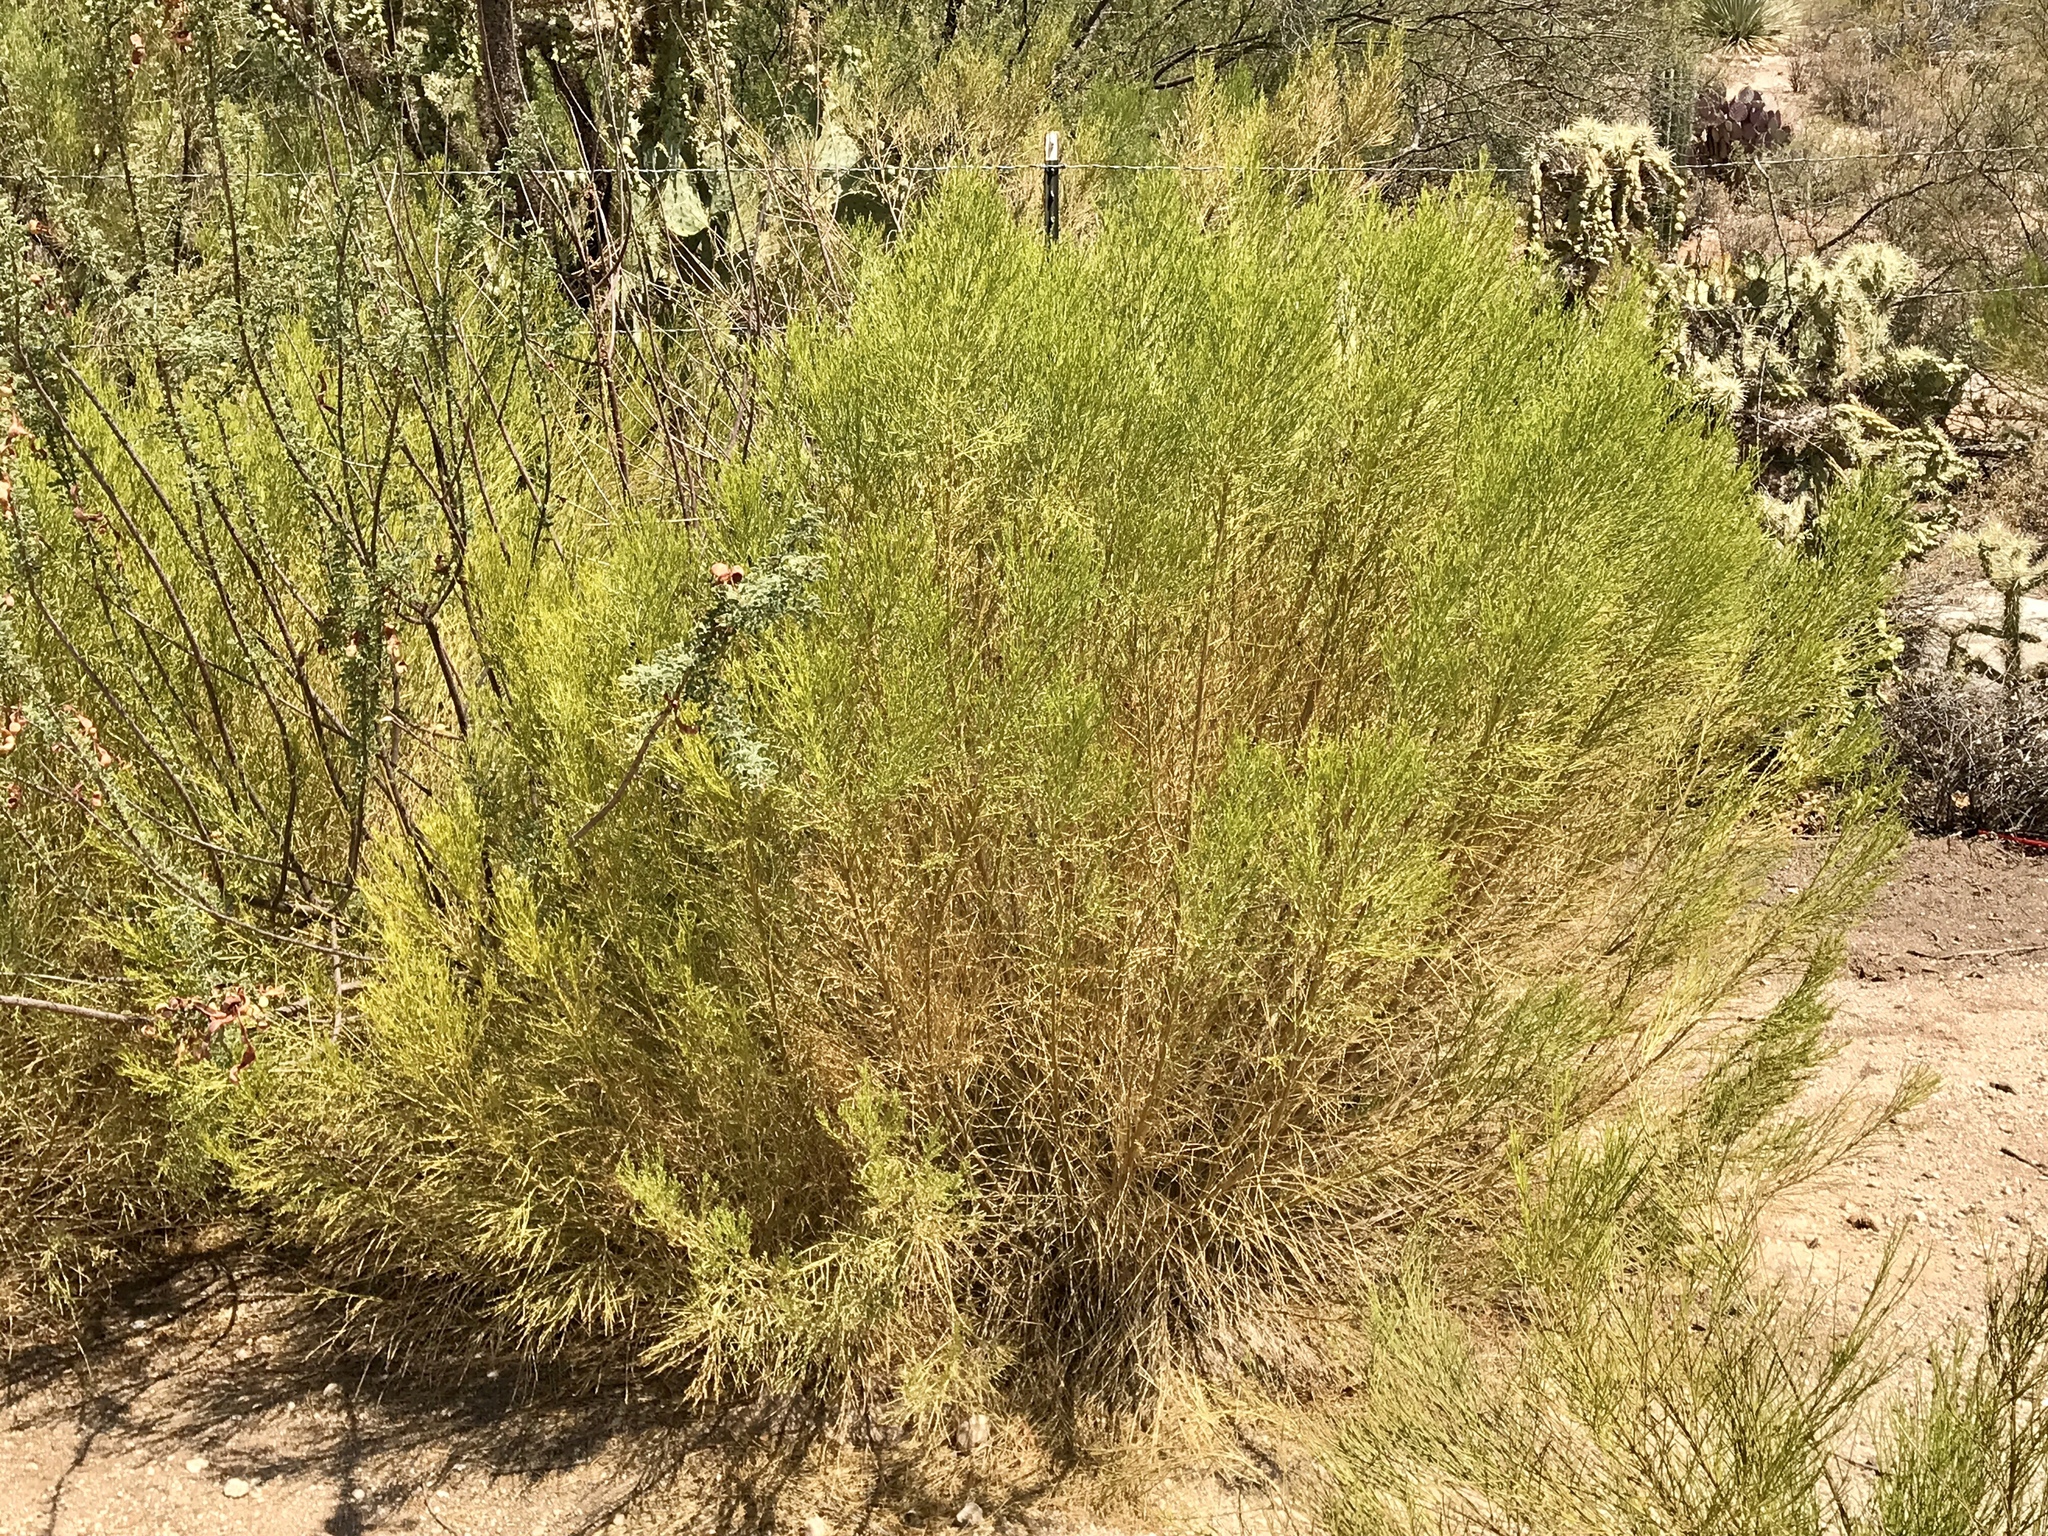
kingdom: Plantae
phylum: Tracheophyta
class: Magnoliopsida
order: Asterales
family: Asteraceae
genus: Baccharis
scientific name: Baccharis sarothroides
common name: Desert-broom
